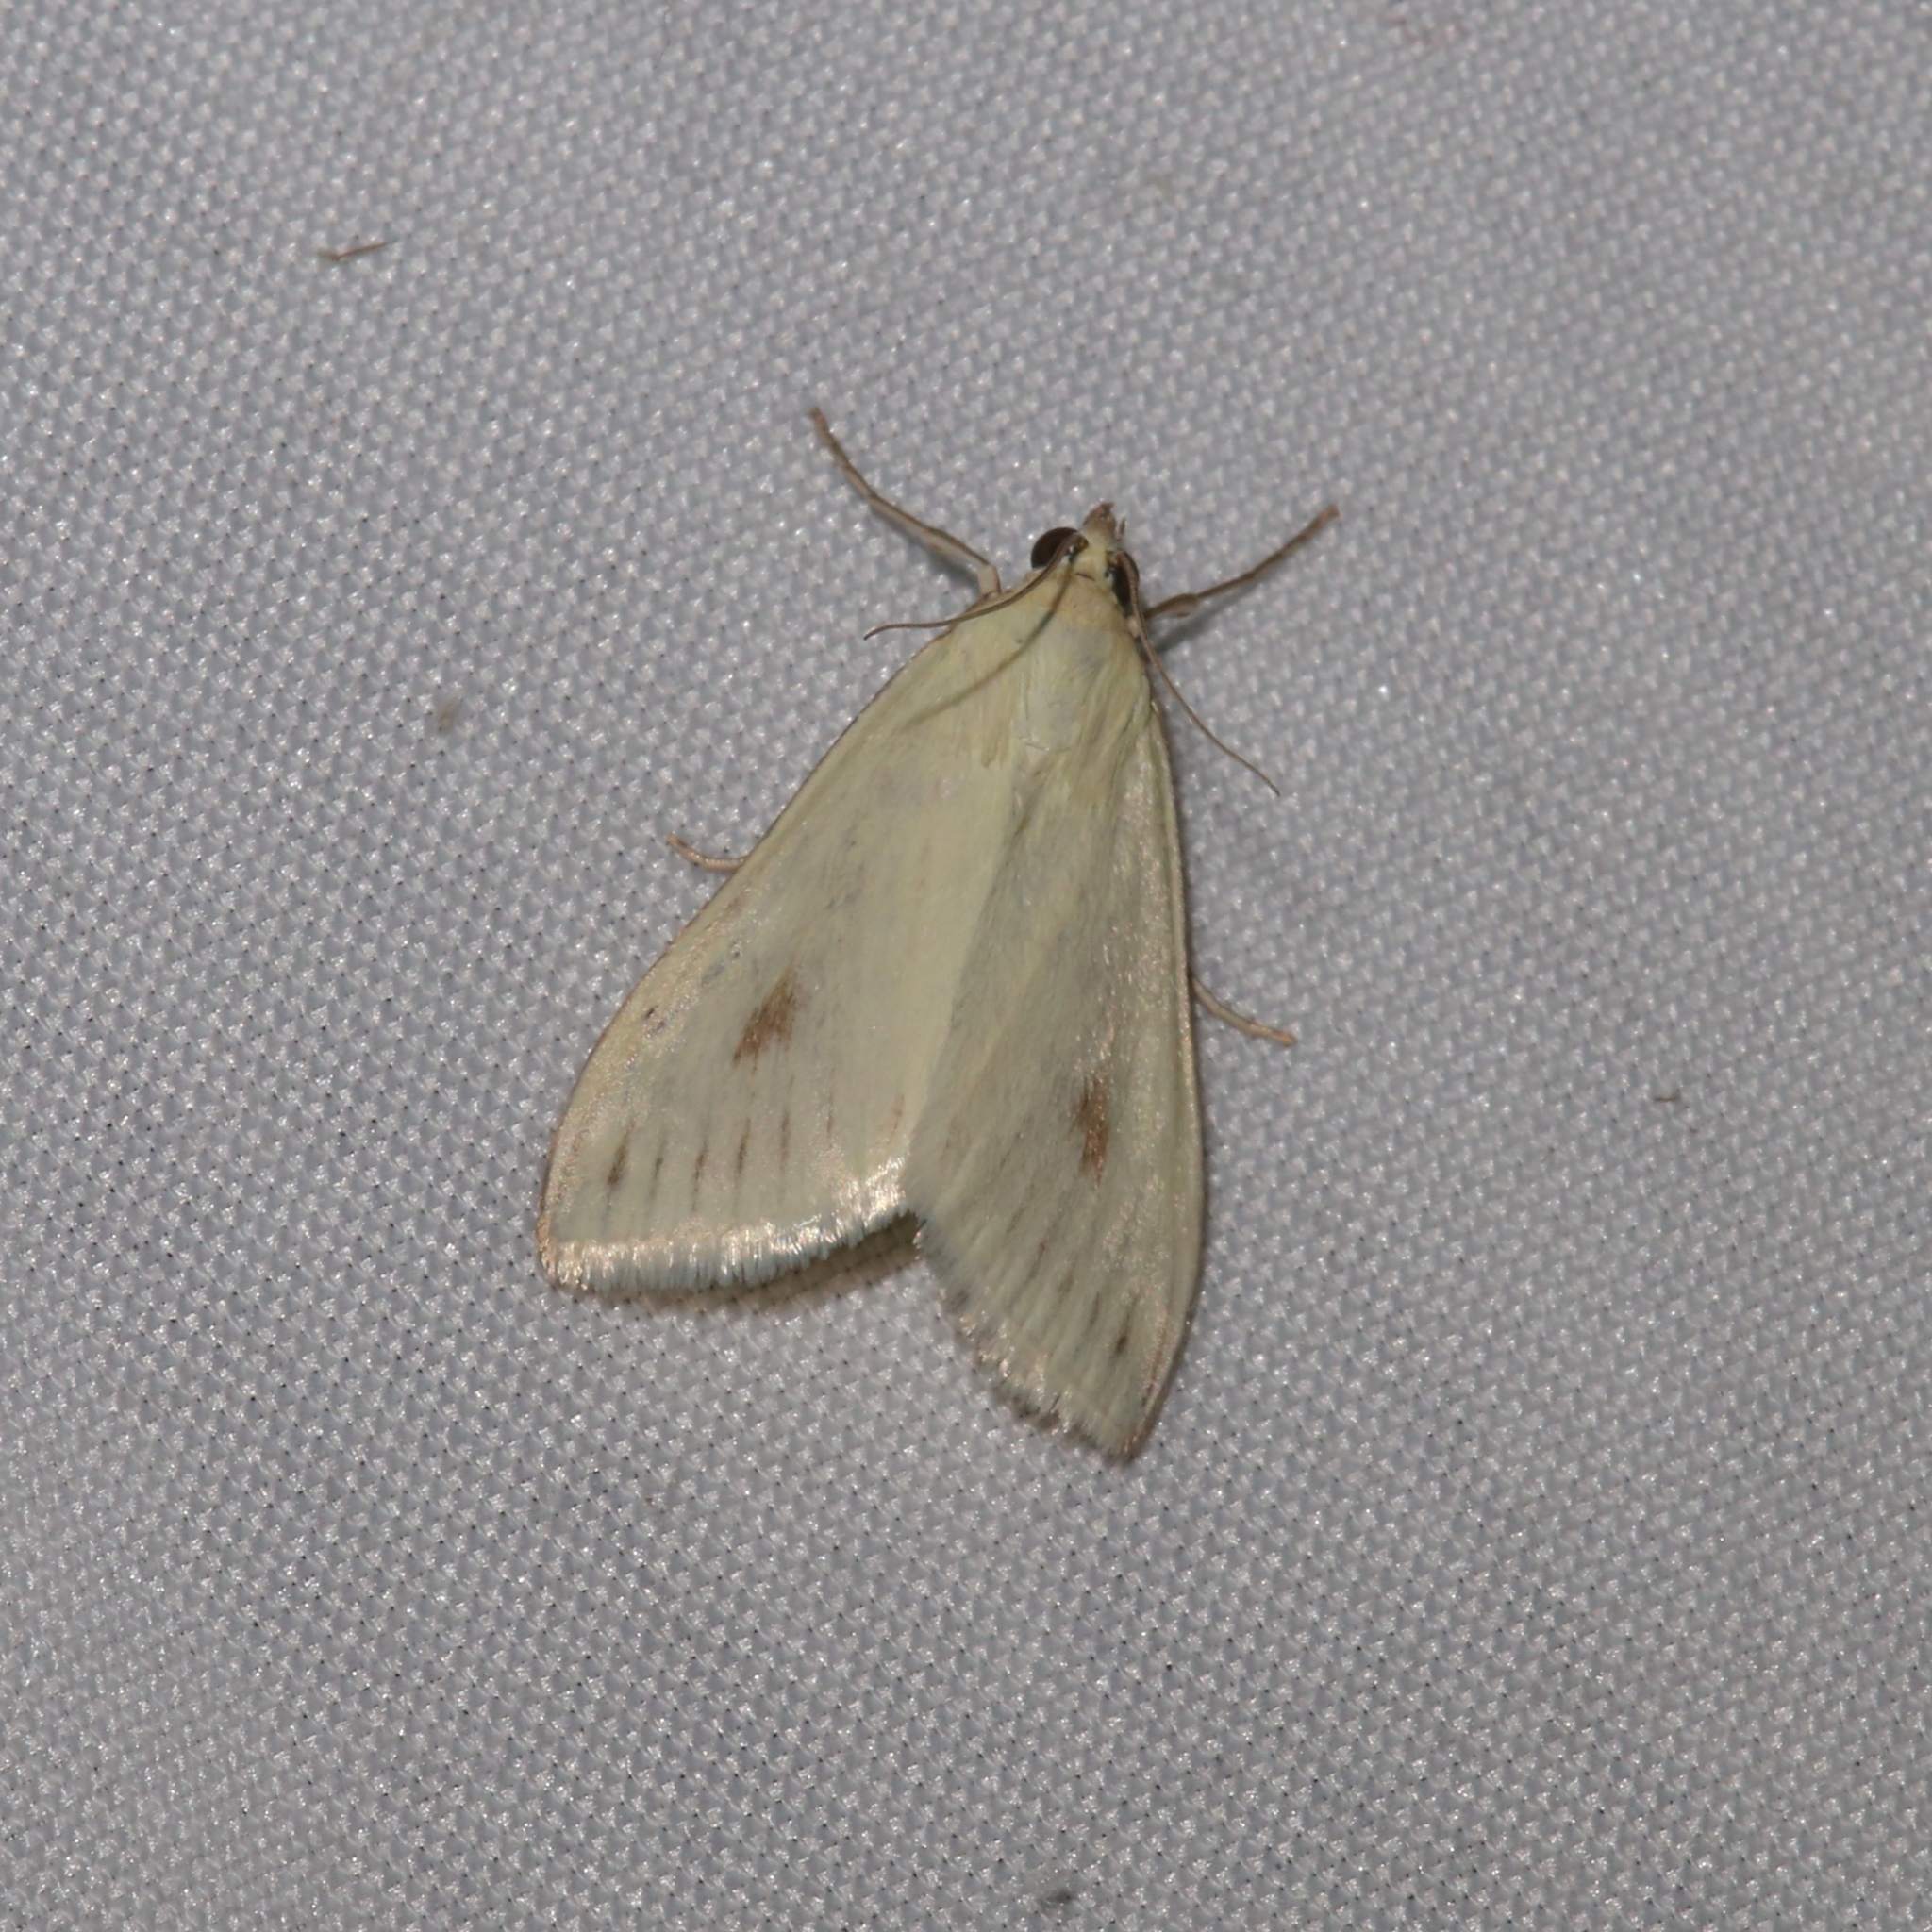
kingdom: Animalia
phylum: Arthropoda
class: Insecta
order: Lepidoptera
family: Crambidae
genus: Sitochroa
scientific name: Sitochroa palealis
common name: Greenish-yellow sitochroa moth
